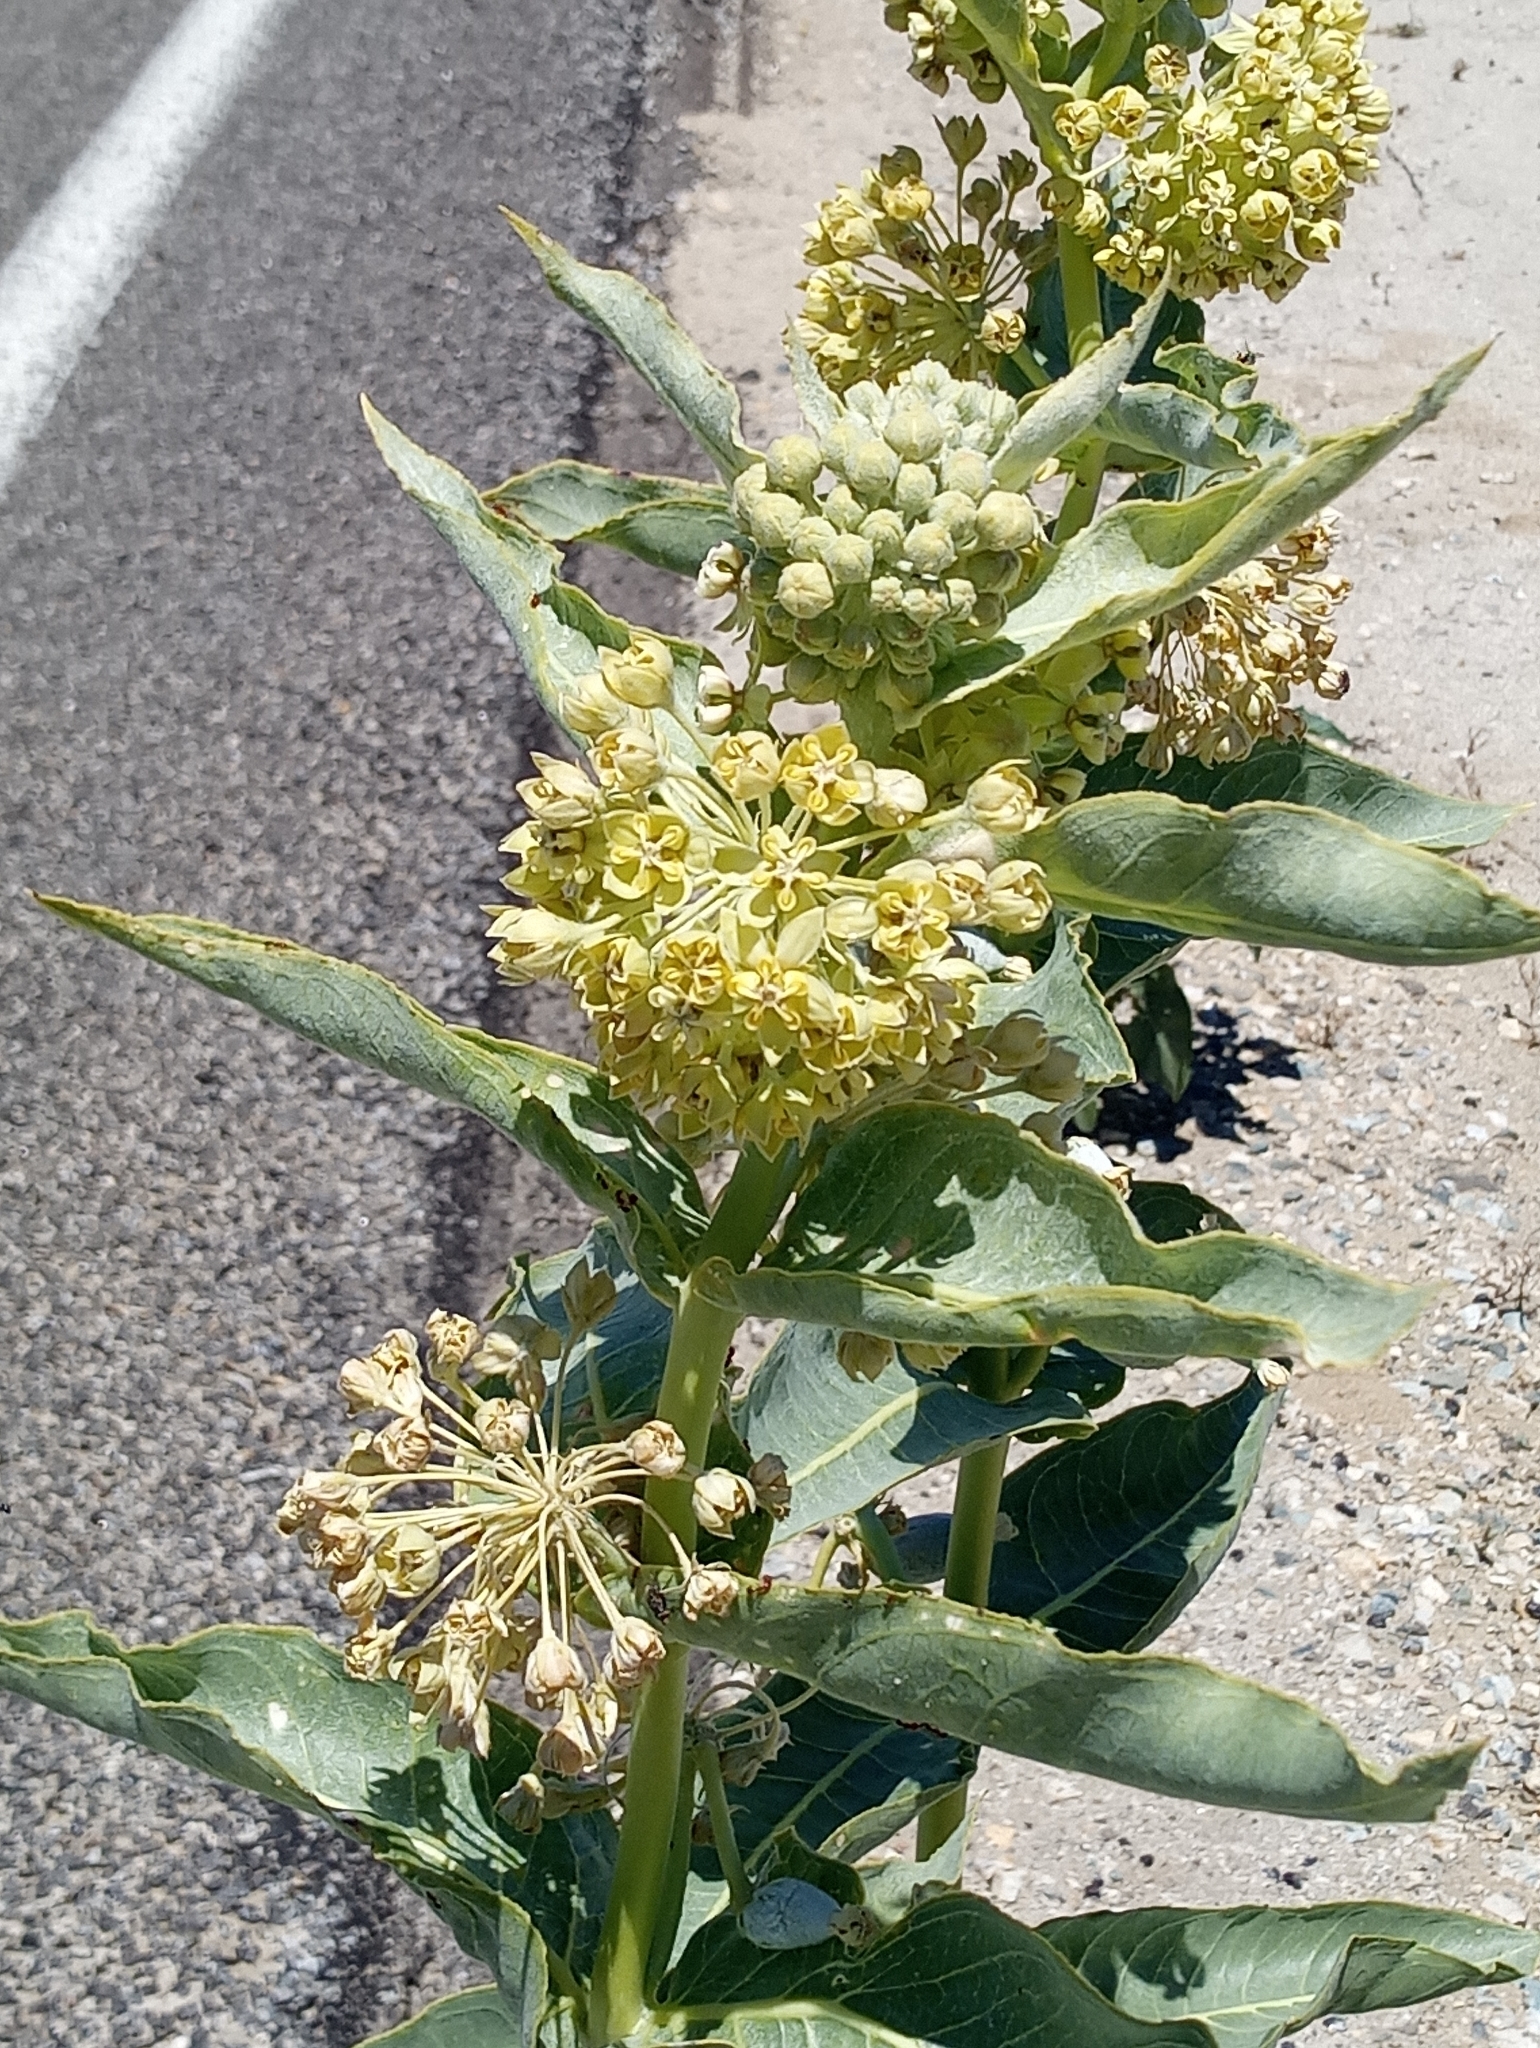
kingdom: Plantae
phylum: Tracheophyta
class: Magnoliopsida
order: Gentianales
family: Apocynaceae
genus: Asclepias
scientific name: Asclepias erosa
